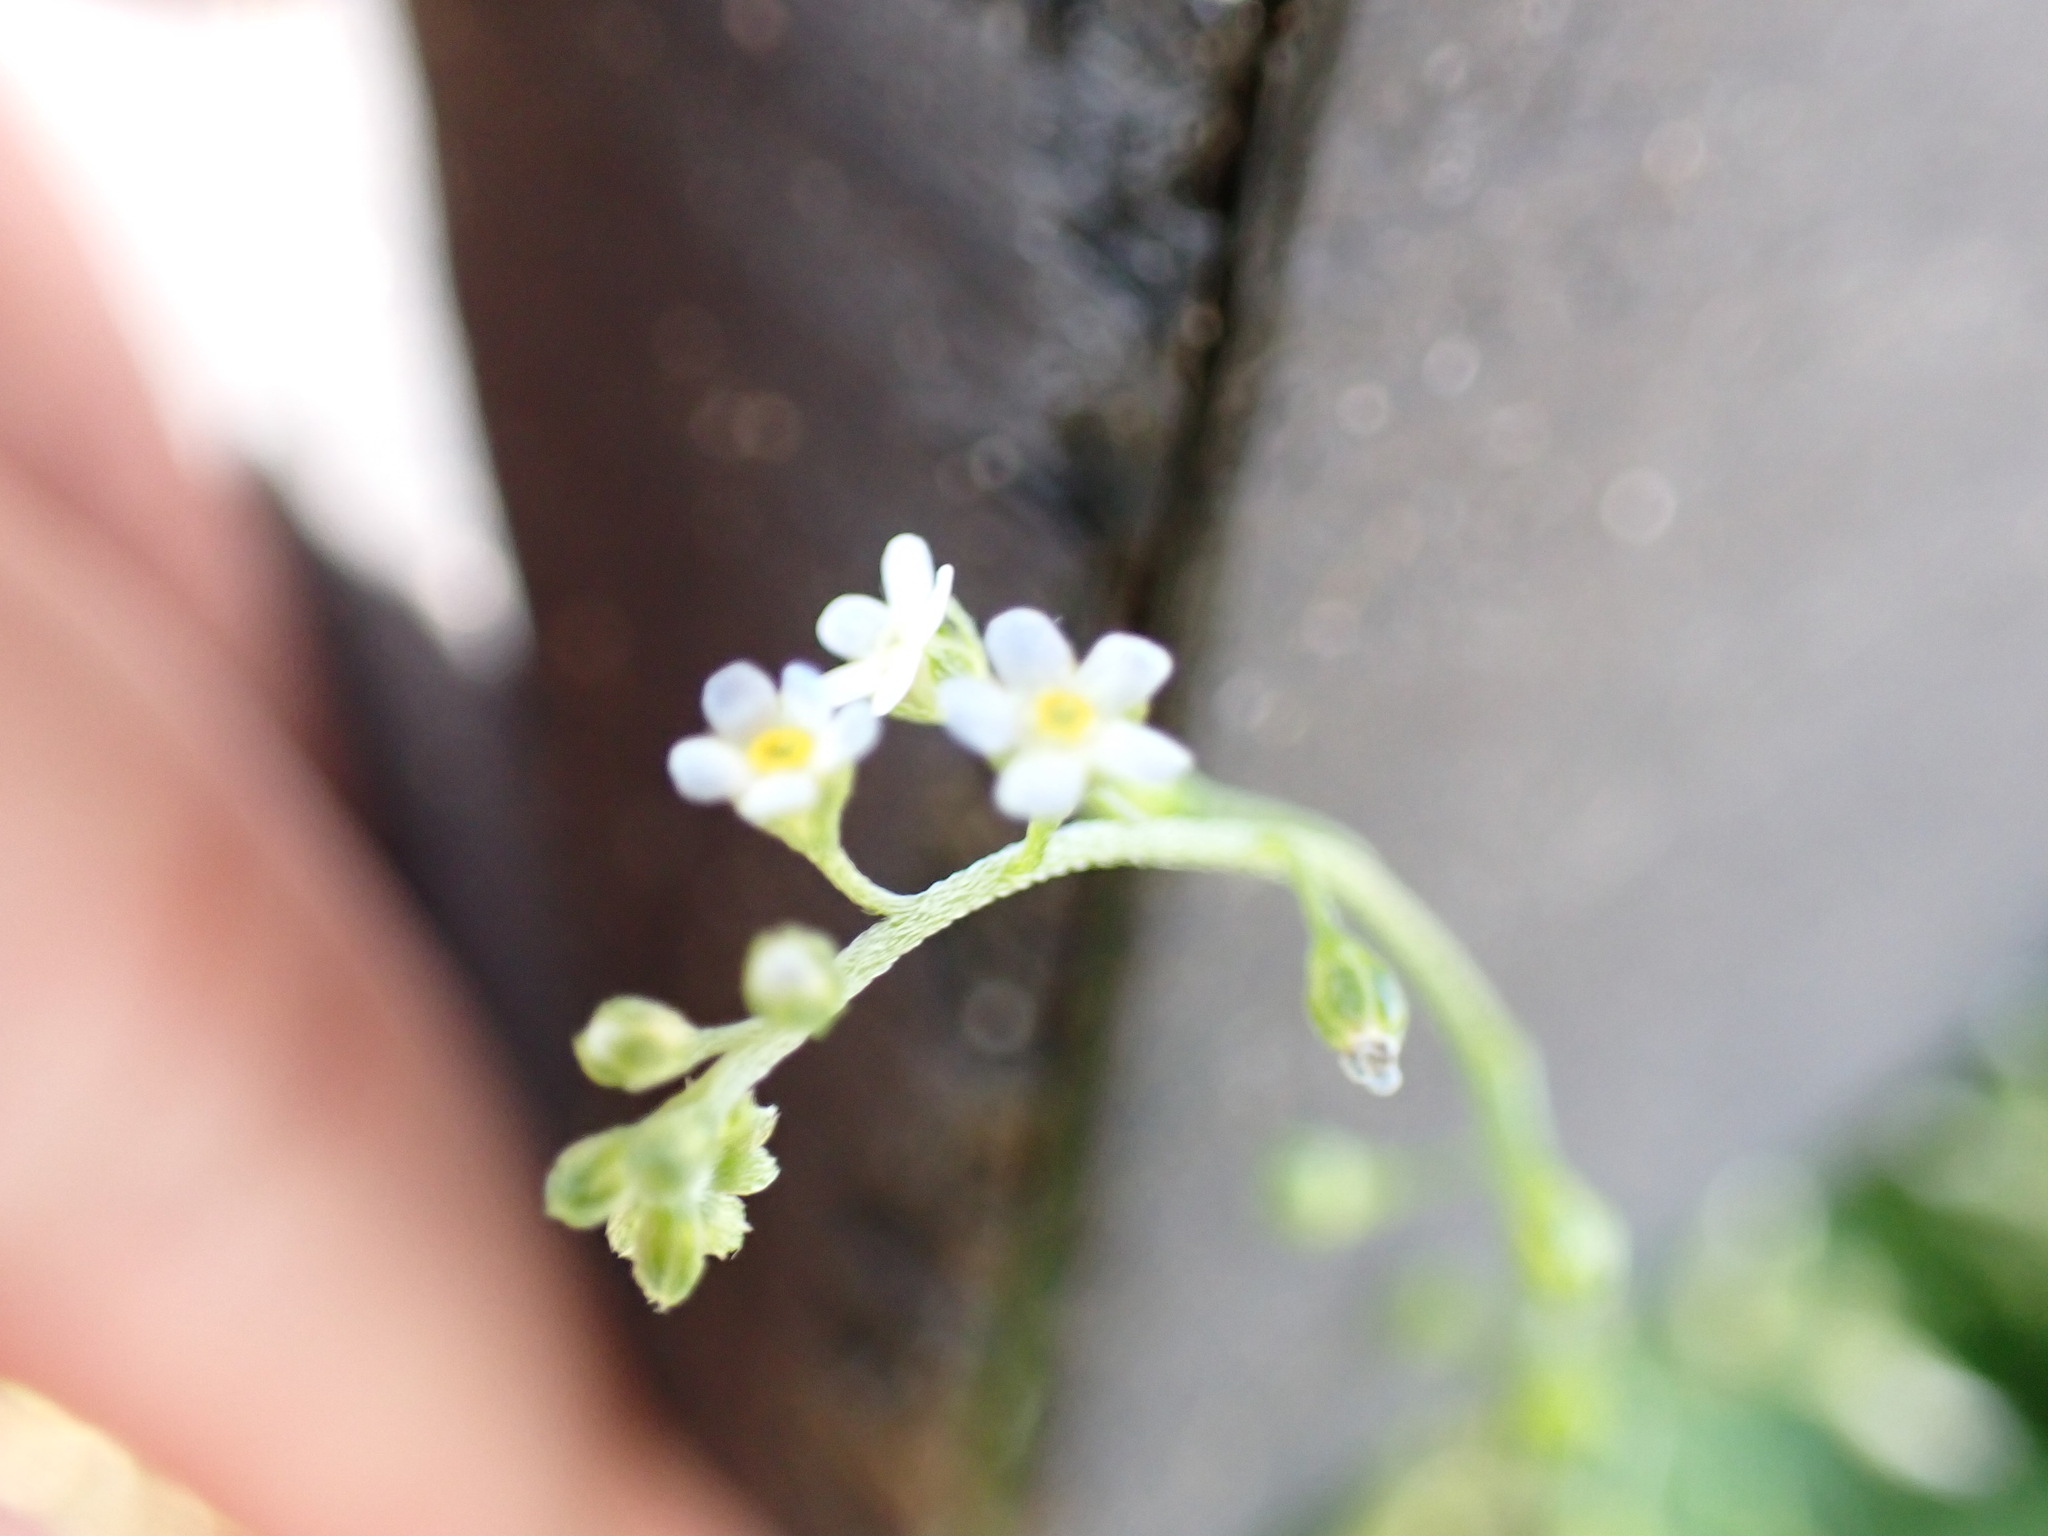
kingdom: Plantae
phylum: Tracheophyta
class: Magnoliopsida
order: Boraginales
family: Boraginaceae
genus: Trigonotis
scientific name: Trigonotis peduncularis
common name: Cucumber herb
